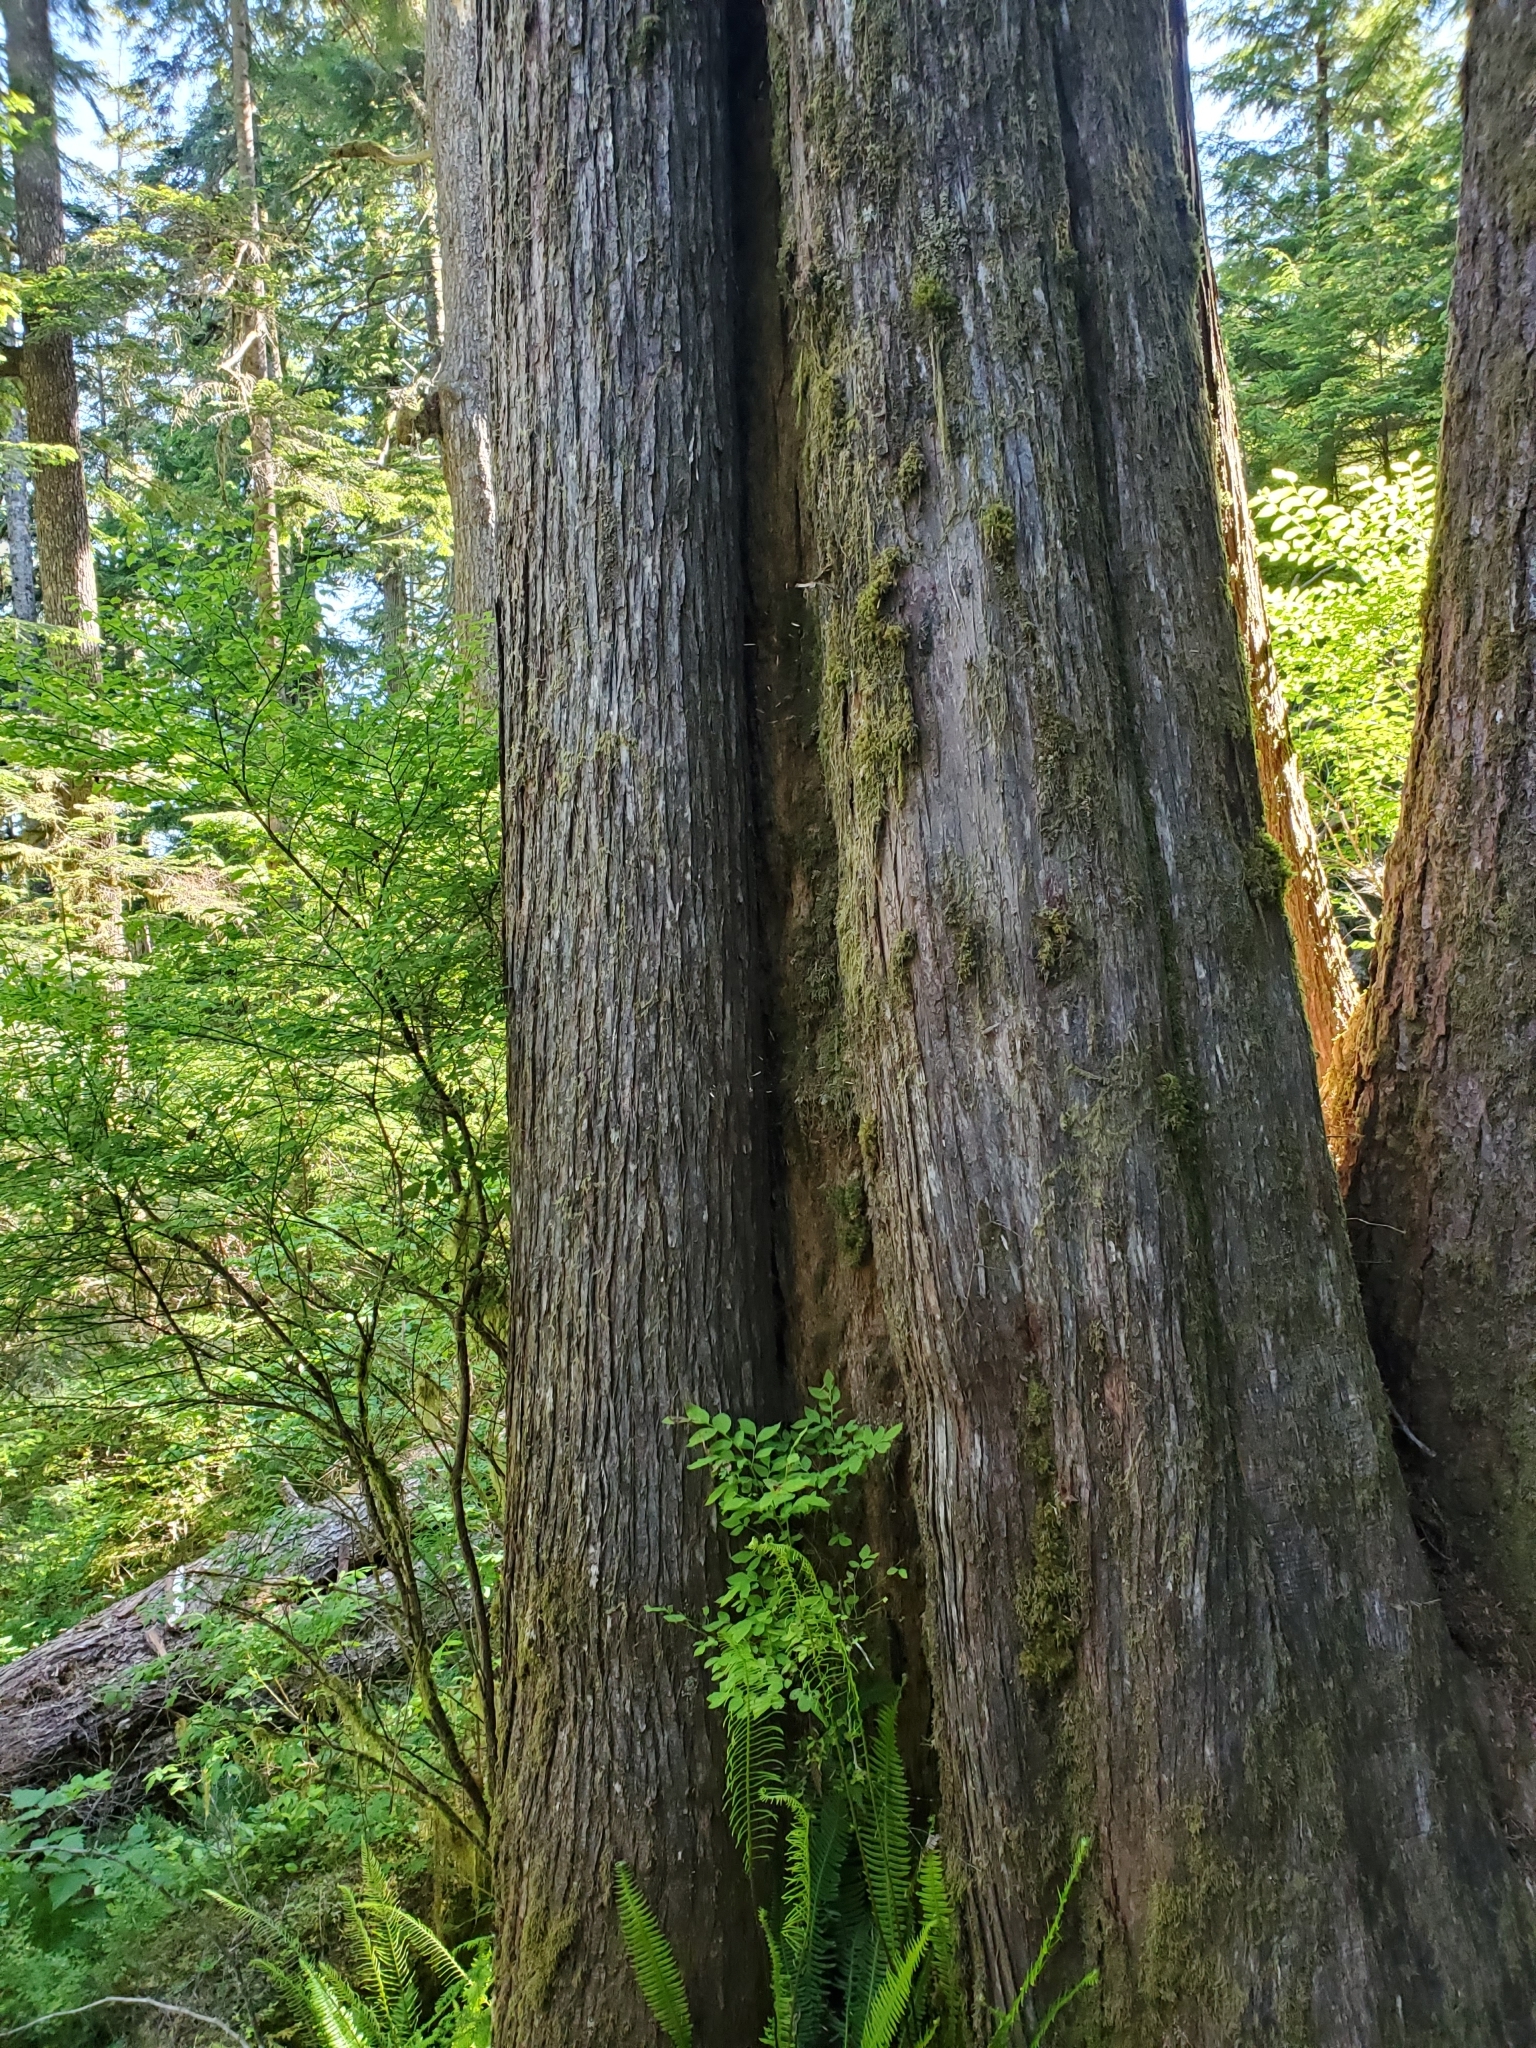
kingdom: Plantae
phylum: Tracheophyta
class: Pinopsida
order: Pinales
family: Cupressaceae
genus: Thuja
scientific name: Thuja plicata
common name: Western red-cedar
